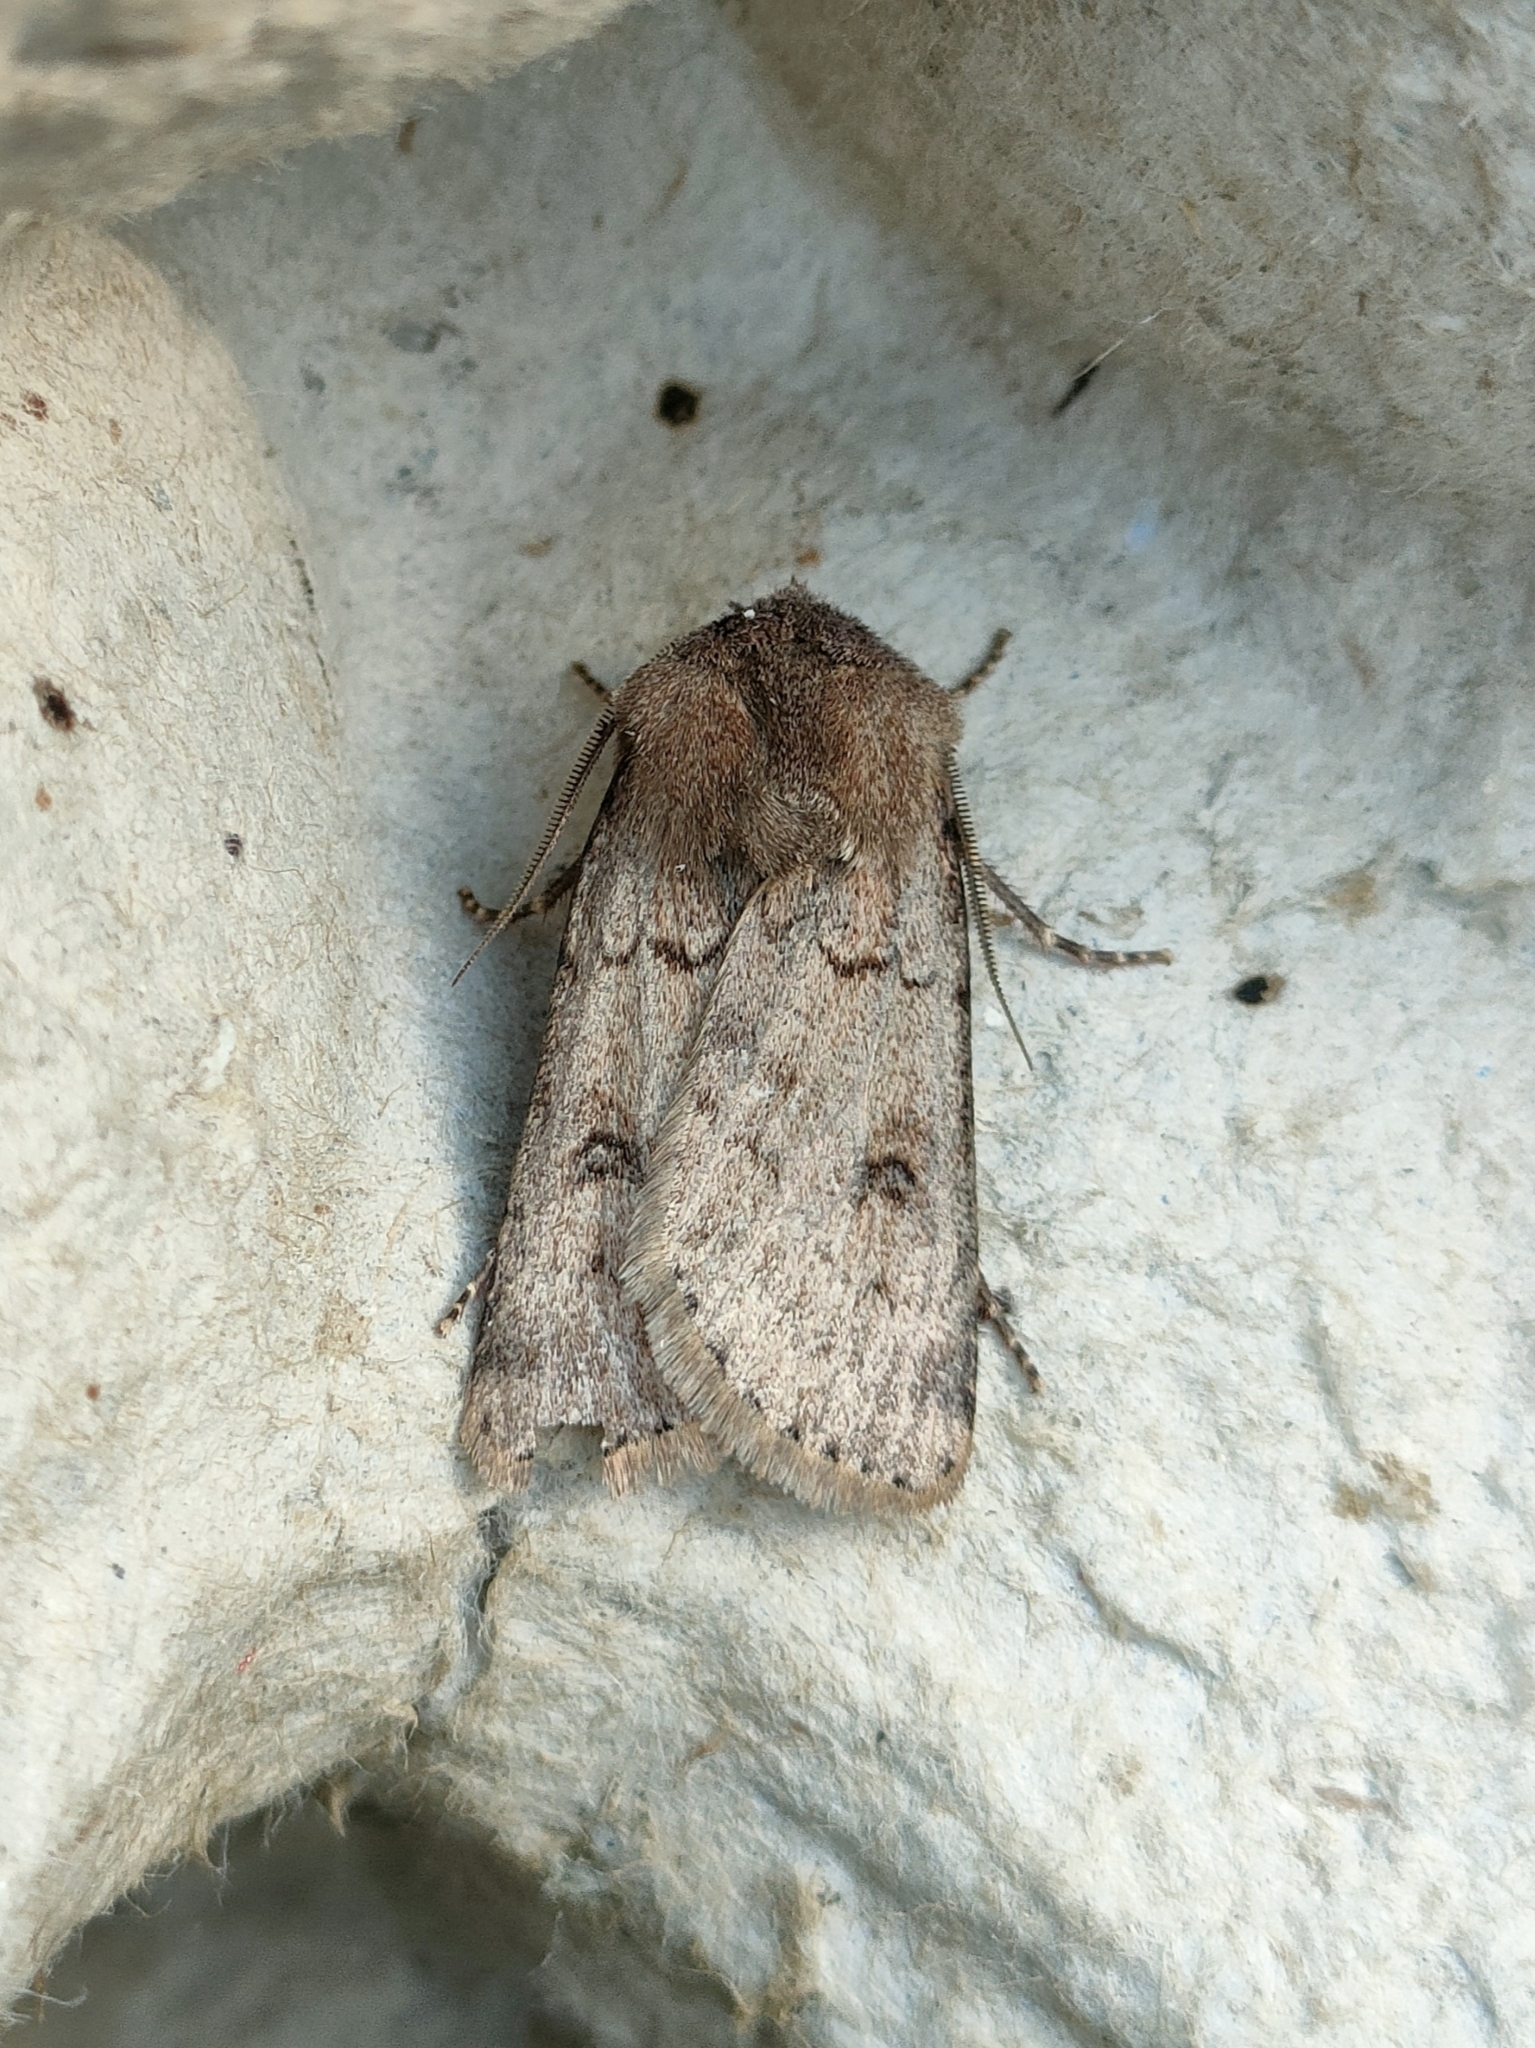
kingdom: Animalia
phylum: Arthropoda
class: Insecta
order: Lepidoptera
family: Noctuidae
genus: Agrotis
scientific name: Agrotis cinerea
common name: Light feathered rustic
